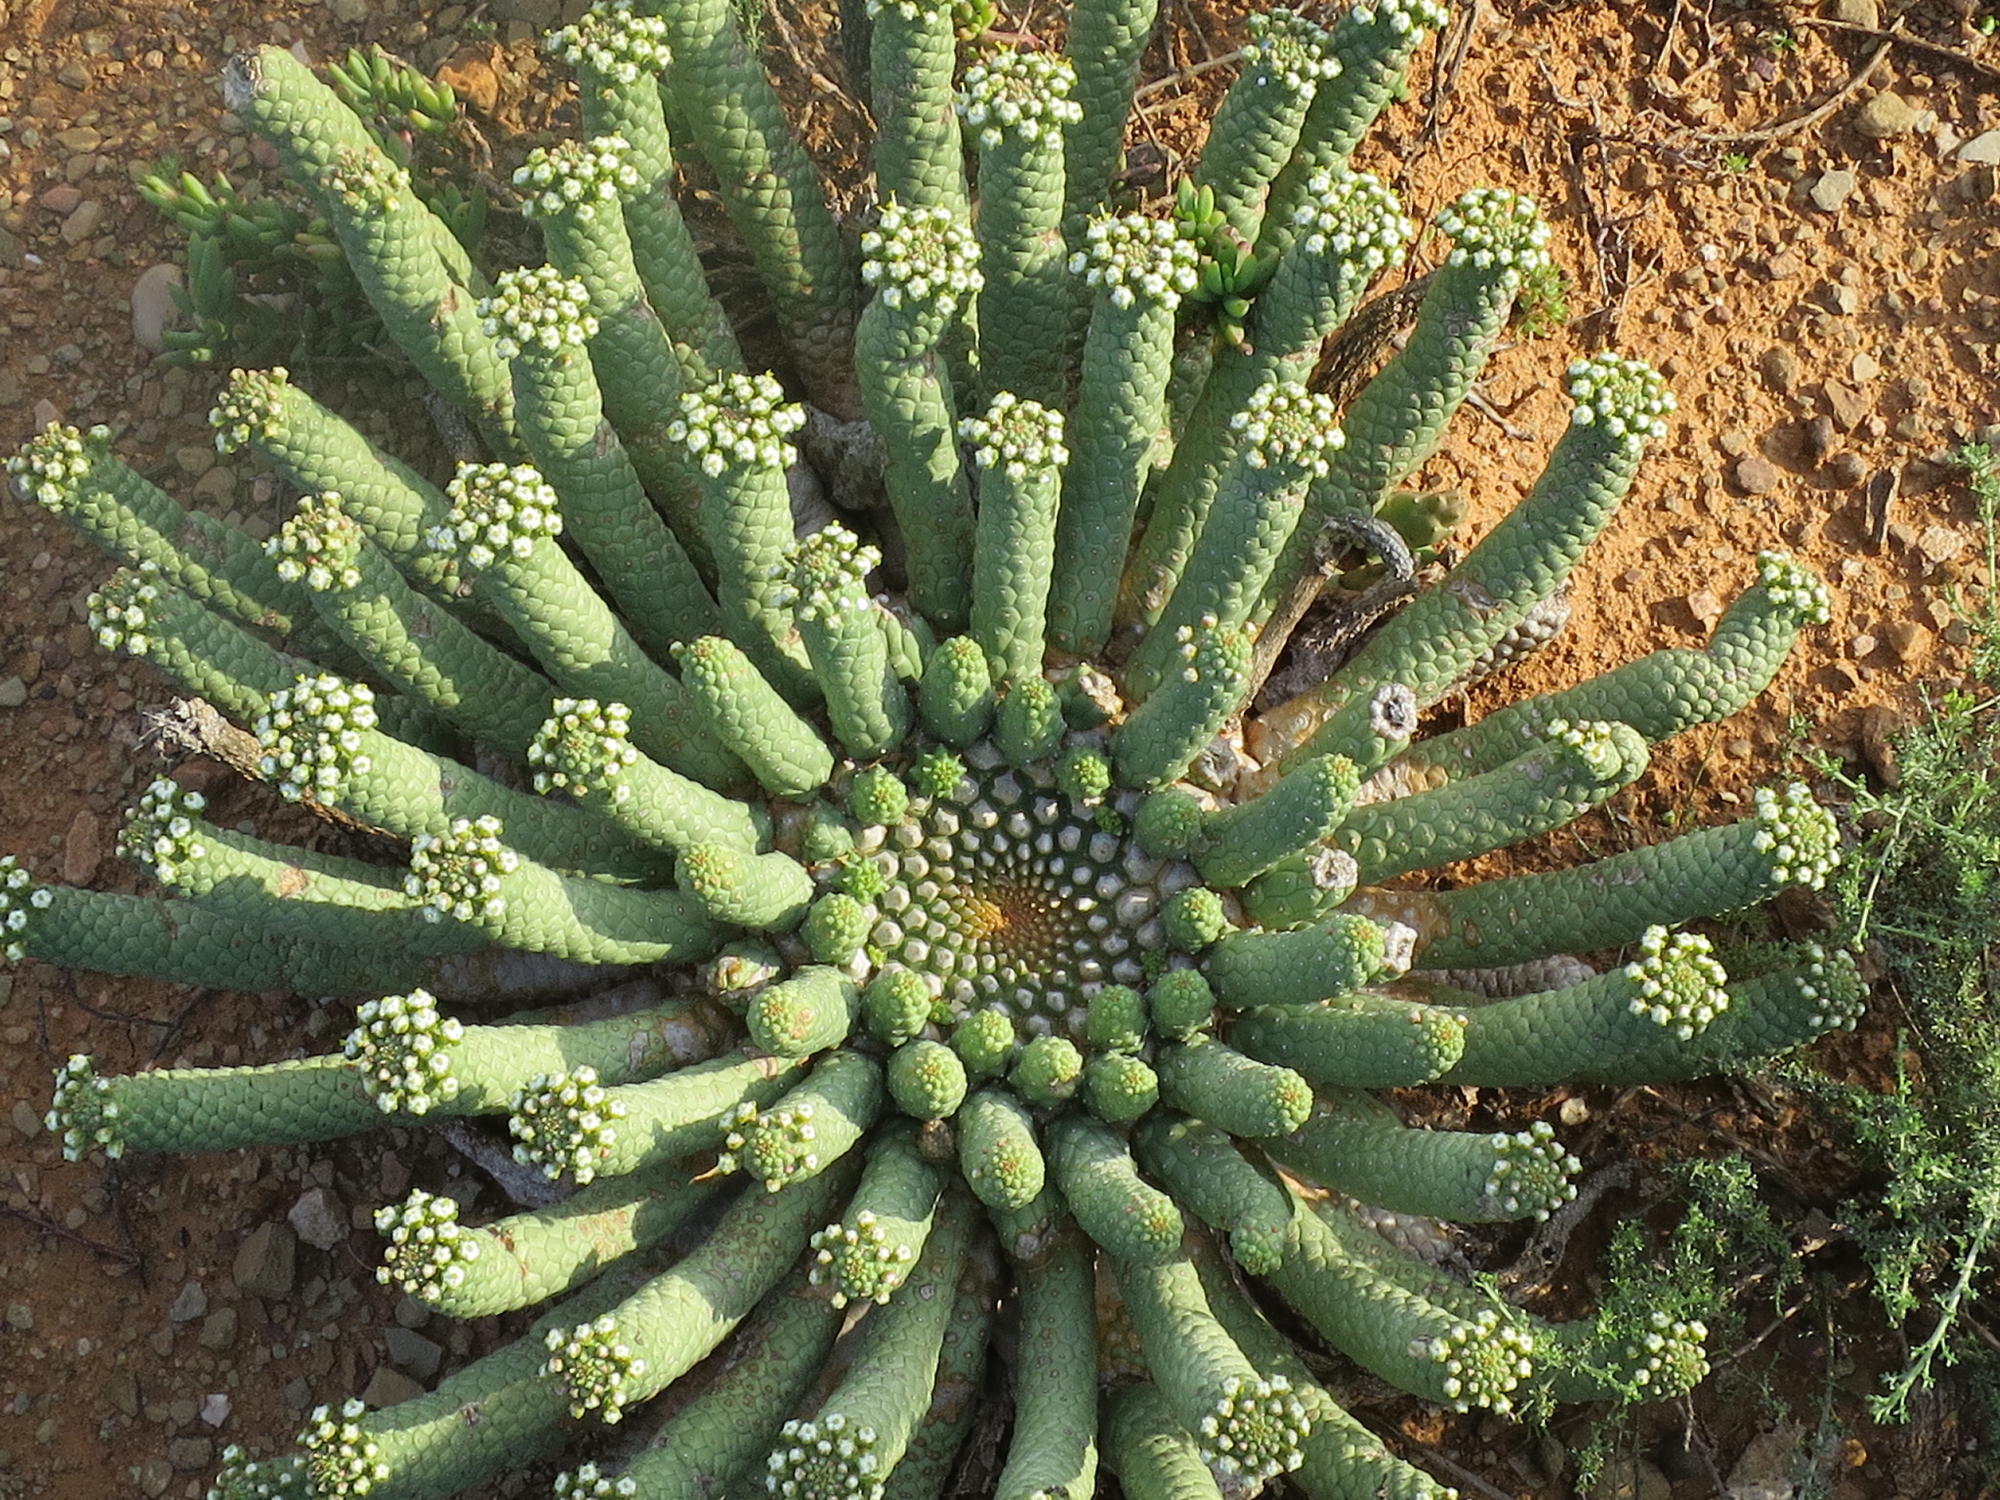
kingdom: Plantae
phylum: Tracheophyta
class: Magnoliopsida
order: Malpighiales
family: Euphorbiaceae
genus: Euphorbia
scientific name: Euphorbia esculenta
